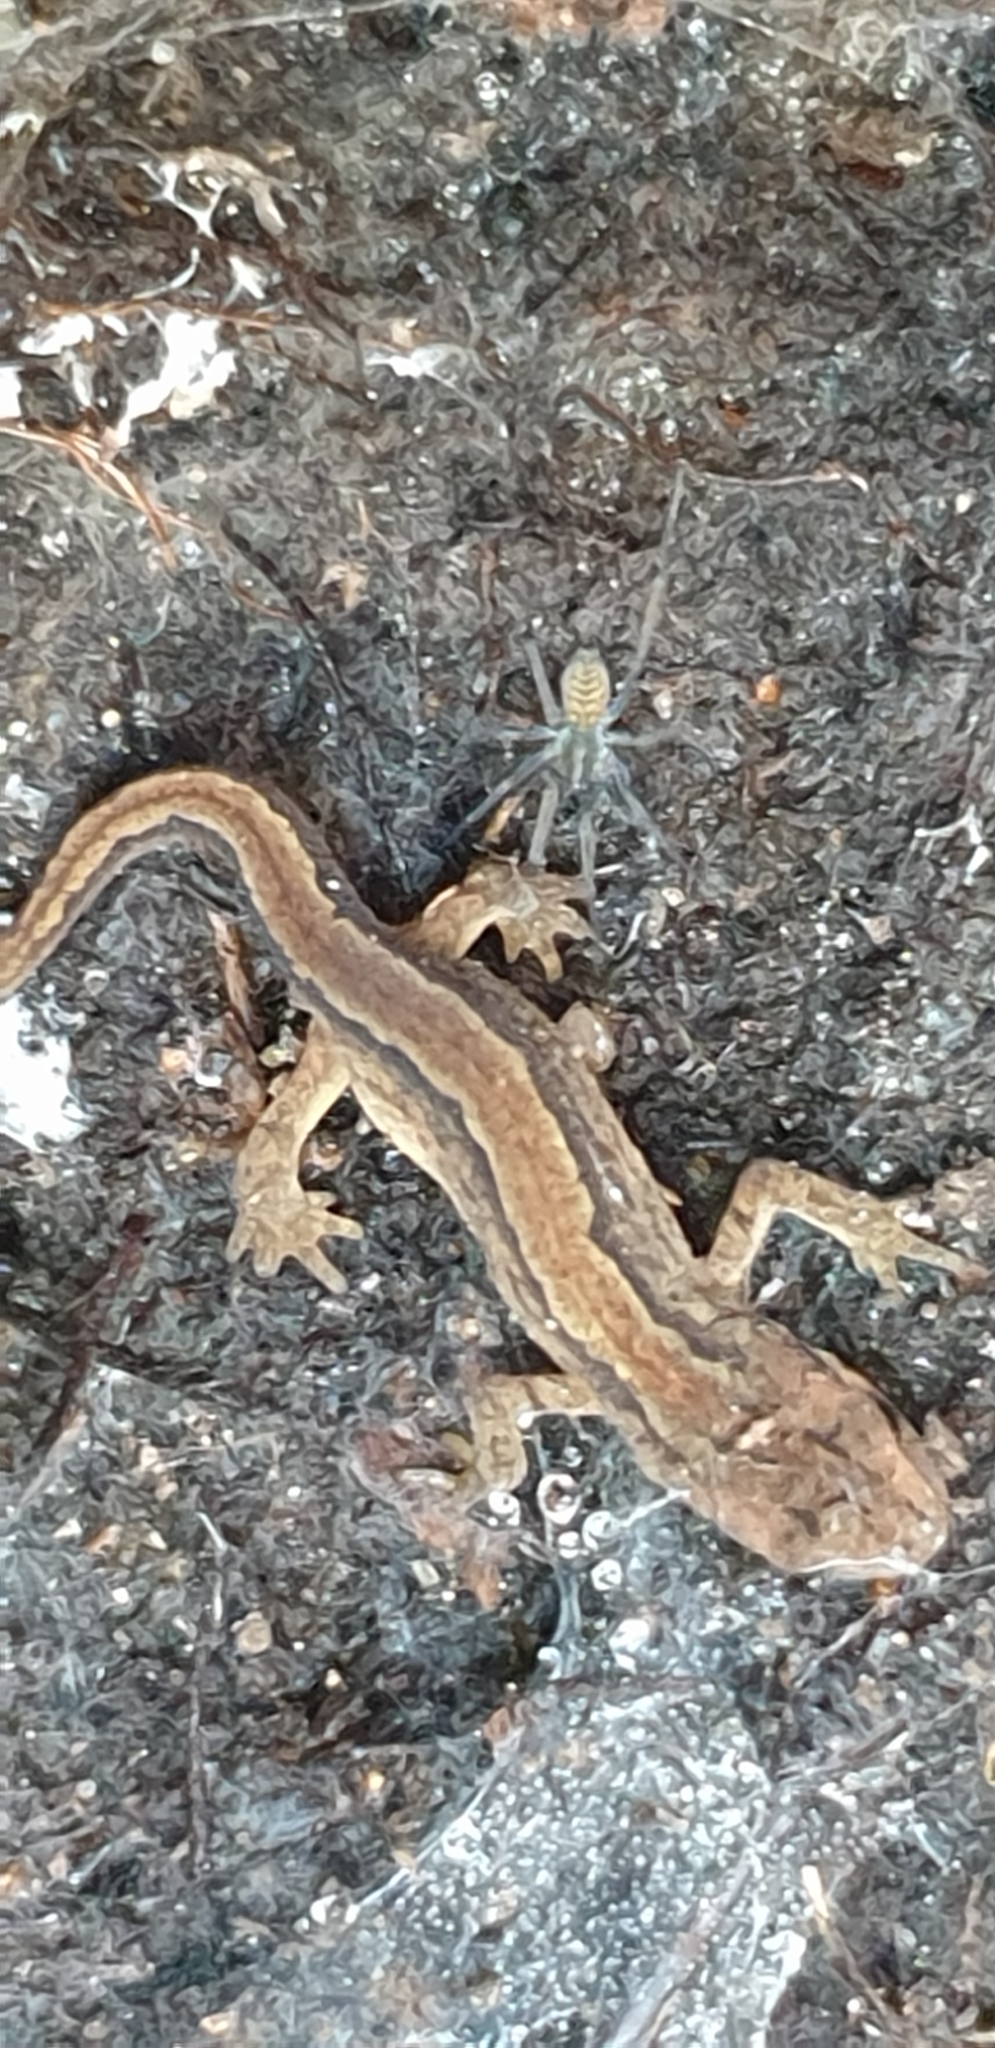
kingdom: Animalia
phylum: Chordata
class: Amphibia
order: Caudata
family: Salamandridae
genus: Lissotriton
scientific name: Lissotriton vulgaris
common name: Smooth newt
